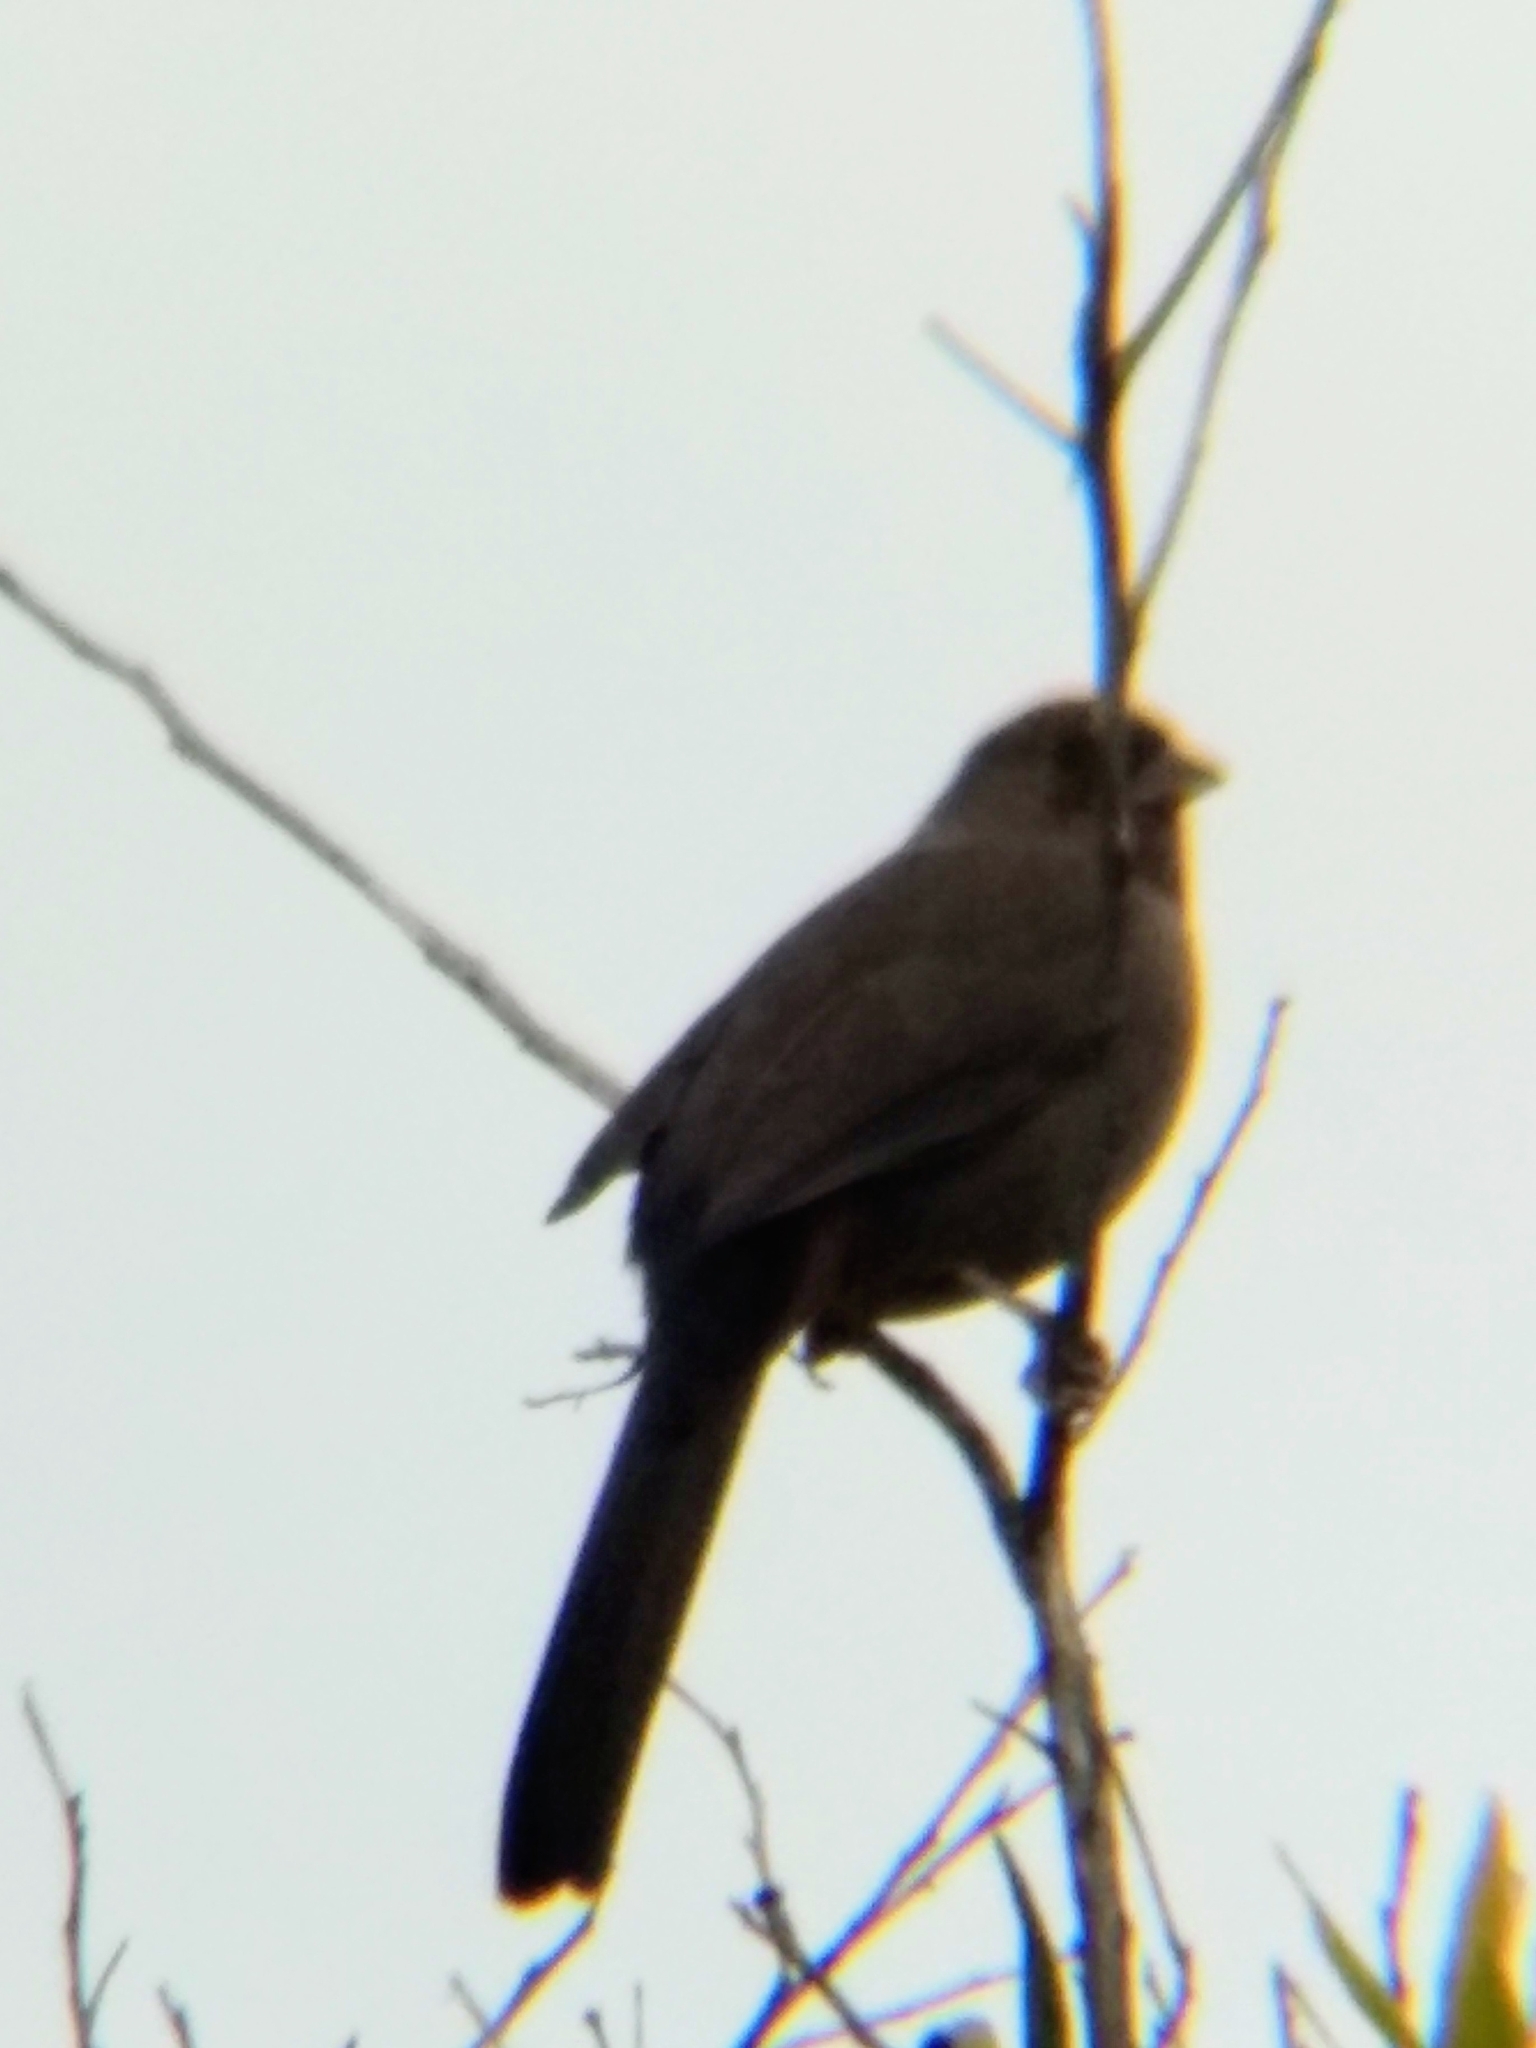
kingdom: Animalia
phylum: Chordata
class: Aves
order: Passeriformes
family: Passerellidae
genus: Melozone
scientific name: Melozone crissalis
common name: California towhee
